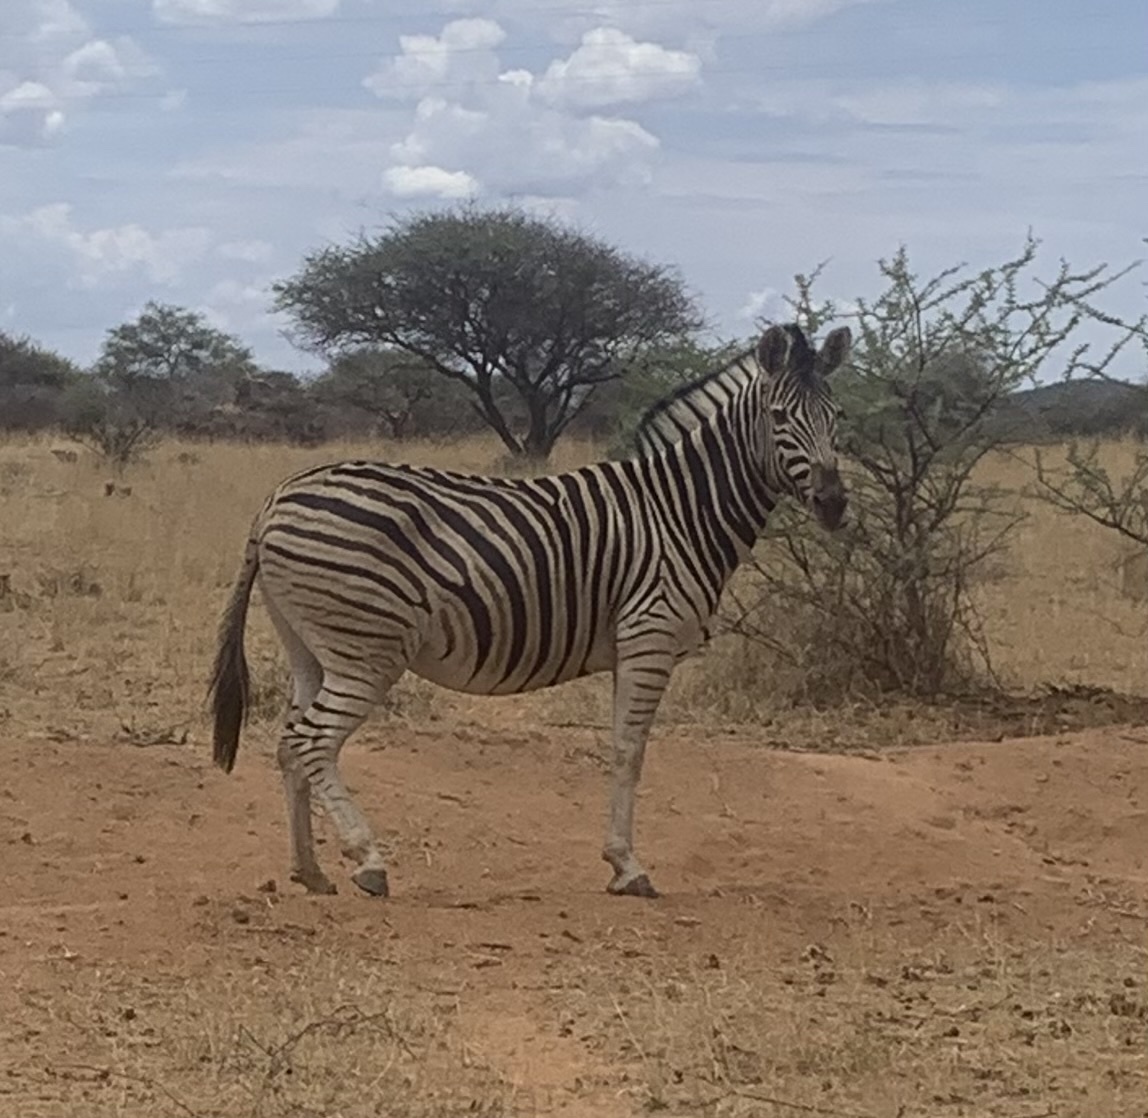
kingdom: Animalia
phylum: Chordata
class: Mammalia
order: Perissodactyla
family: Equidae
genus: Equus
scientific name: Equus quagga
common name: Plains zebra
